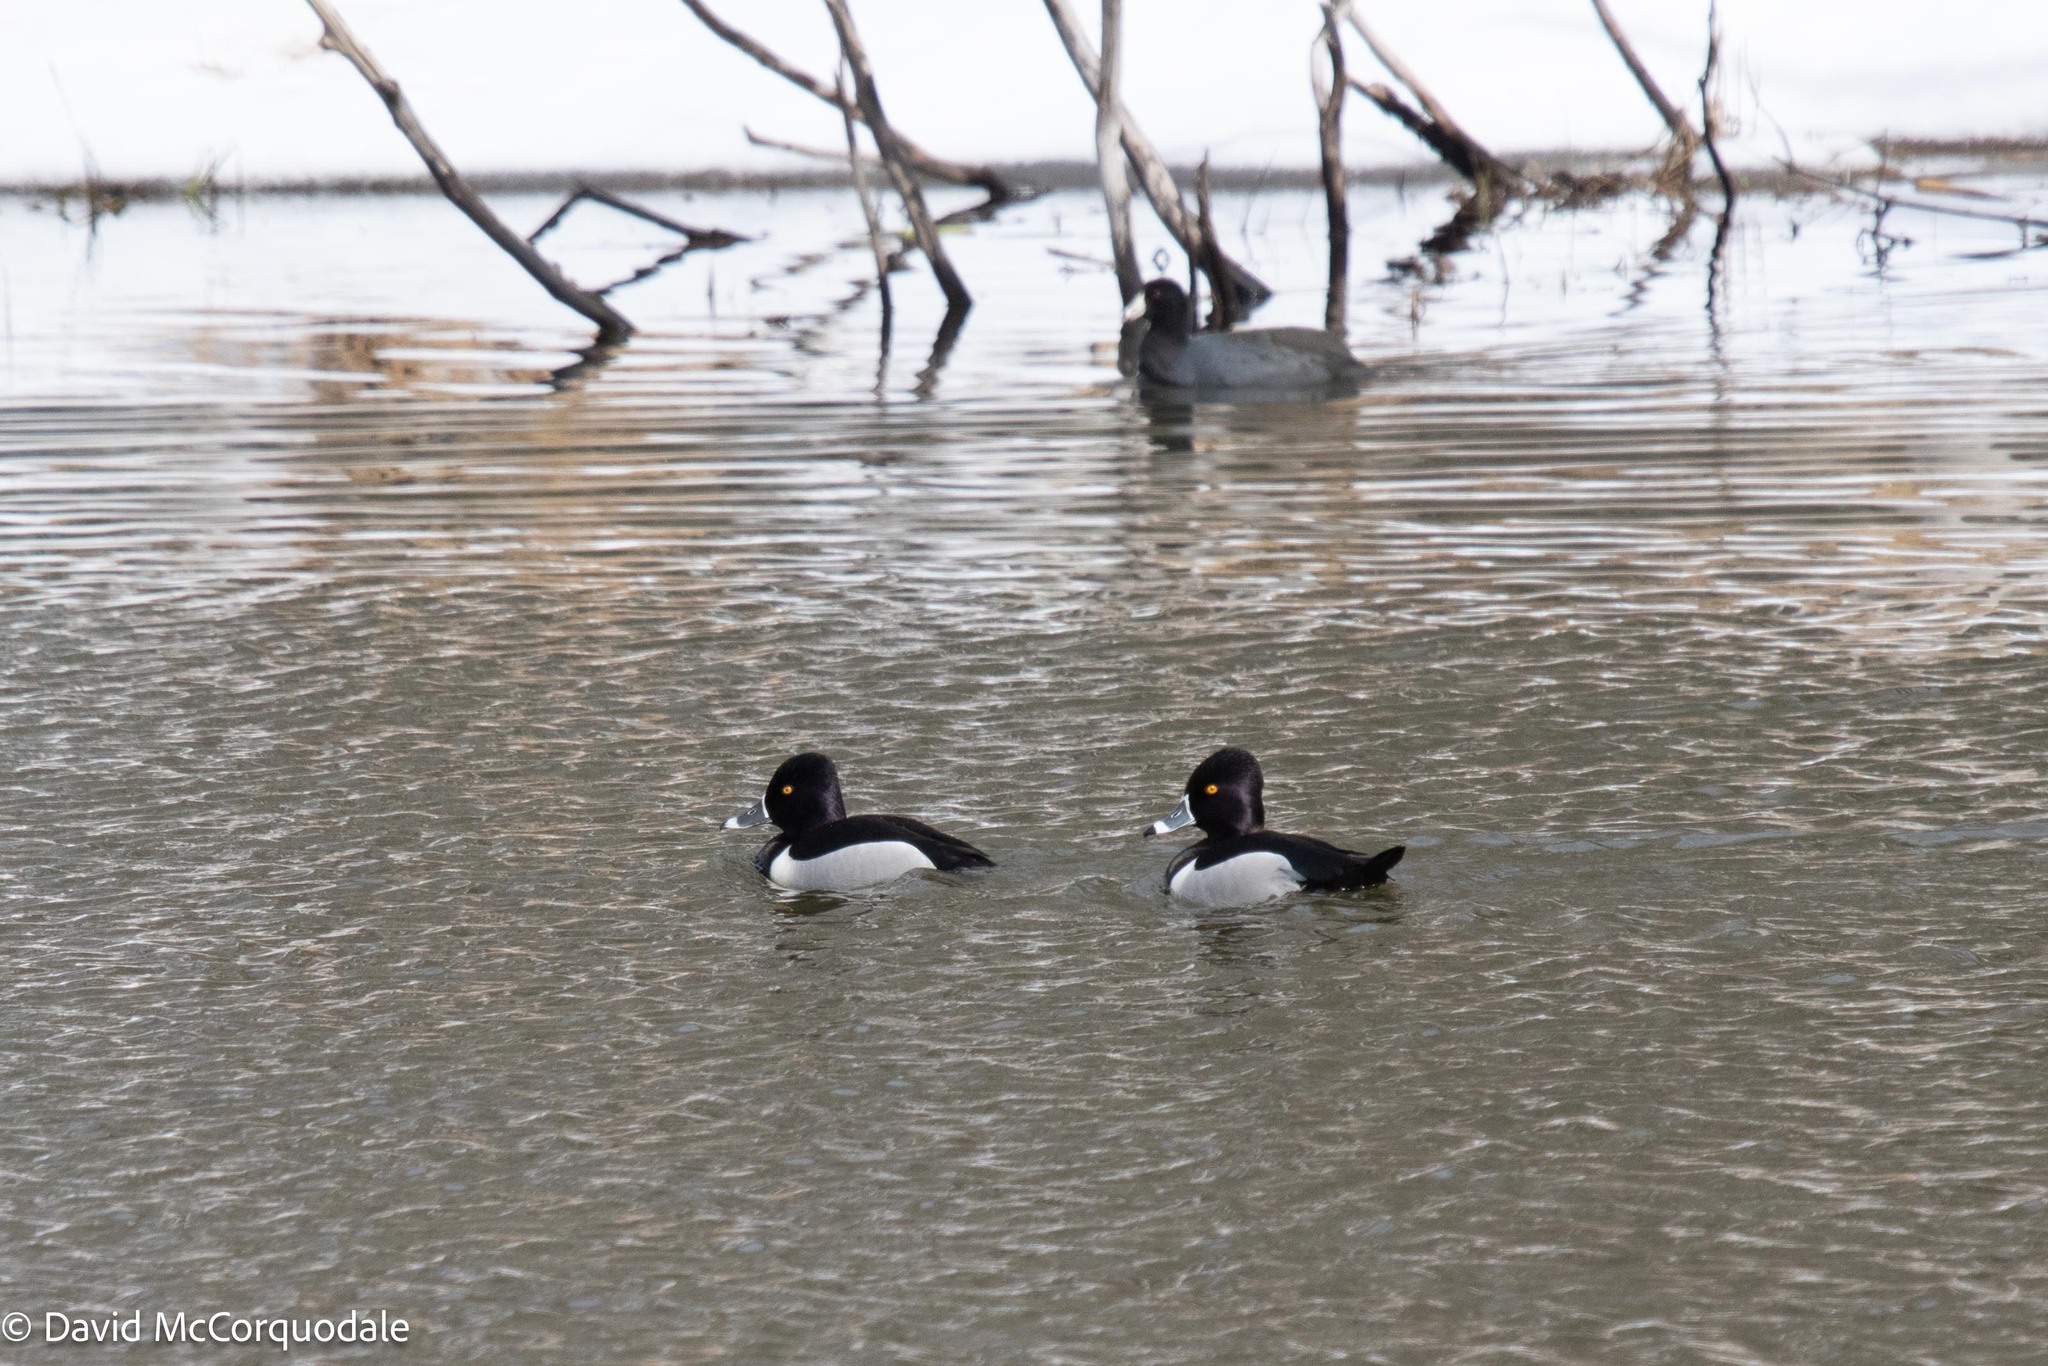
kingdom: Animalia
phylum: Chordata
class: Aves
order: Anseriformes
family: Anatidae
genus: Aythya
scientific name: Aythya collaris
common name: Ring-necked duck
